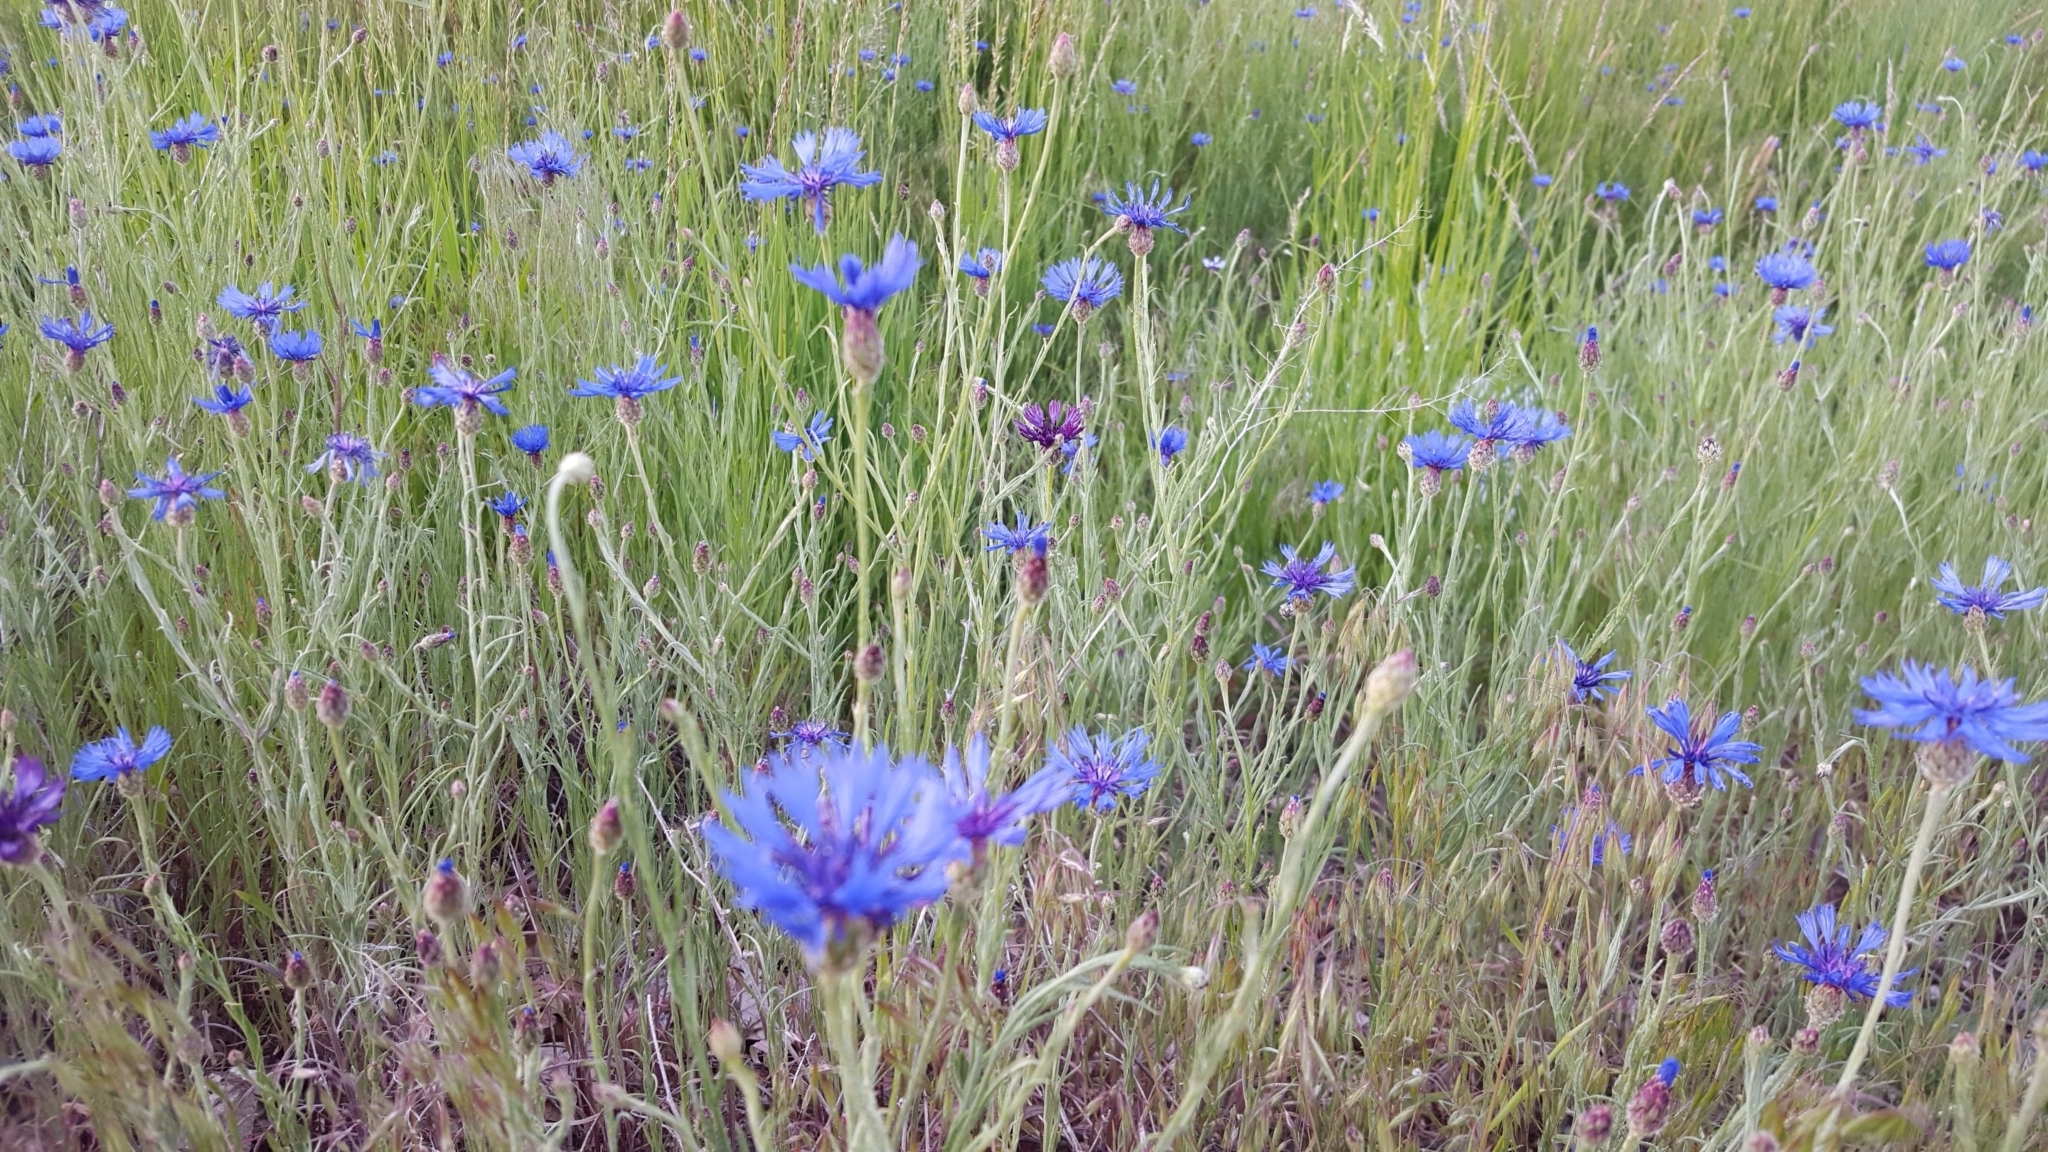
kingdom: Plantae
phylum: Tracheophyta
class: Magnoliopsida
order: Asterales
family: Asteraceae
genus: Centaurea
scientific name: Centaurea cyanus
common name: Cornflower
